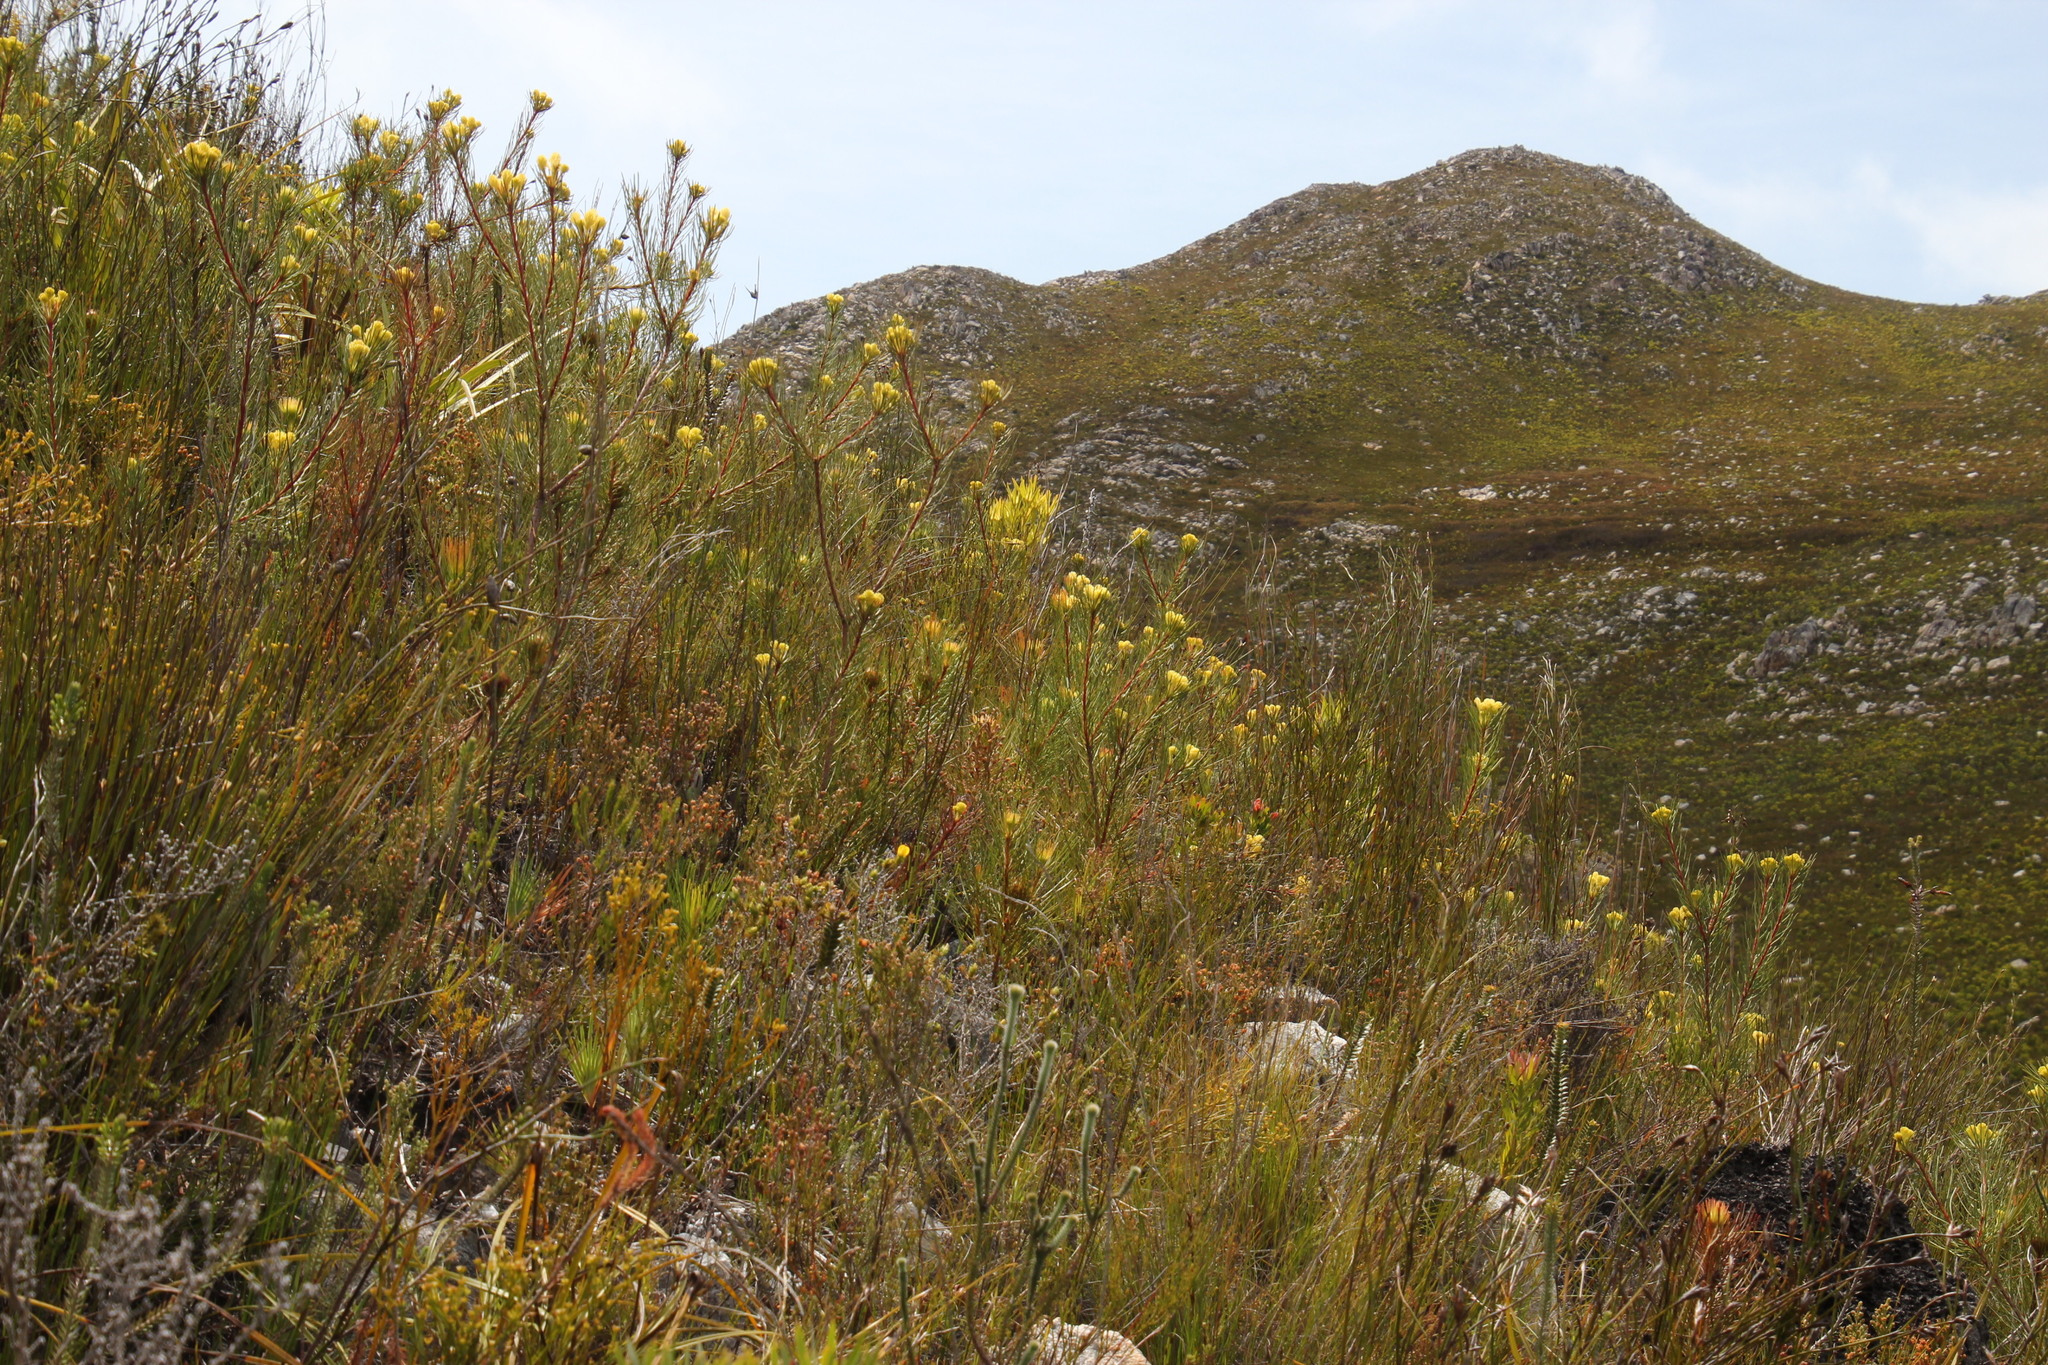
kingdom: Plantae
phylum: Tracheophyta
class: Magnoliopsida
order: Proteales
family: Proteaceae
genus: Aulax
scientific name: Aulax cancellata
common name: Channel-leaf featherbush
